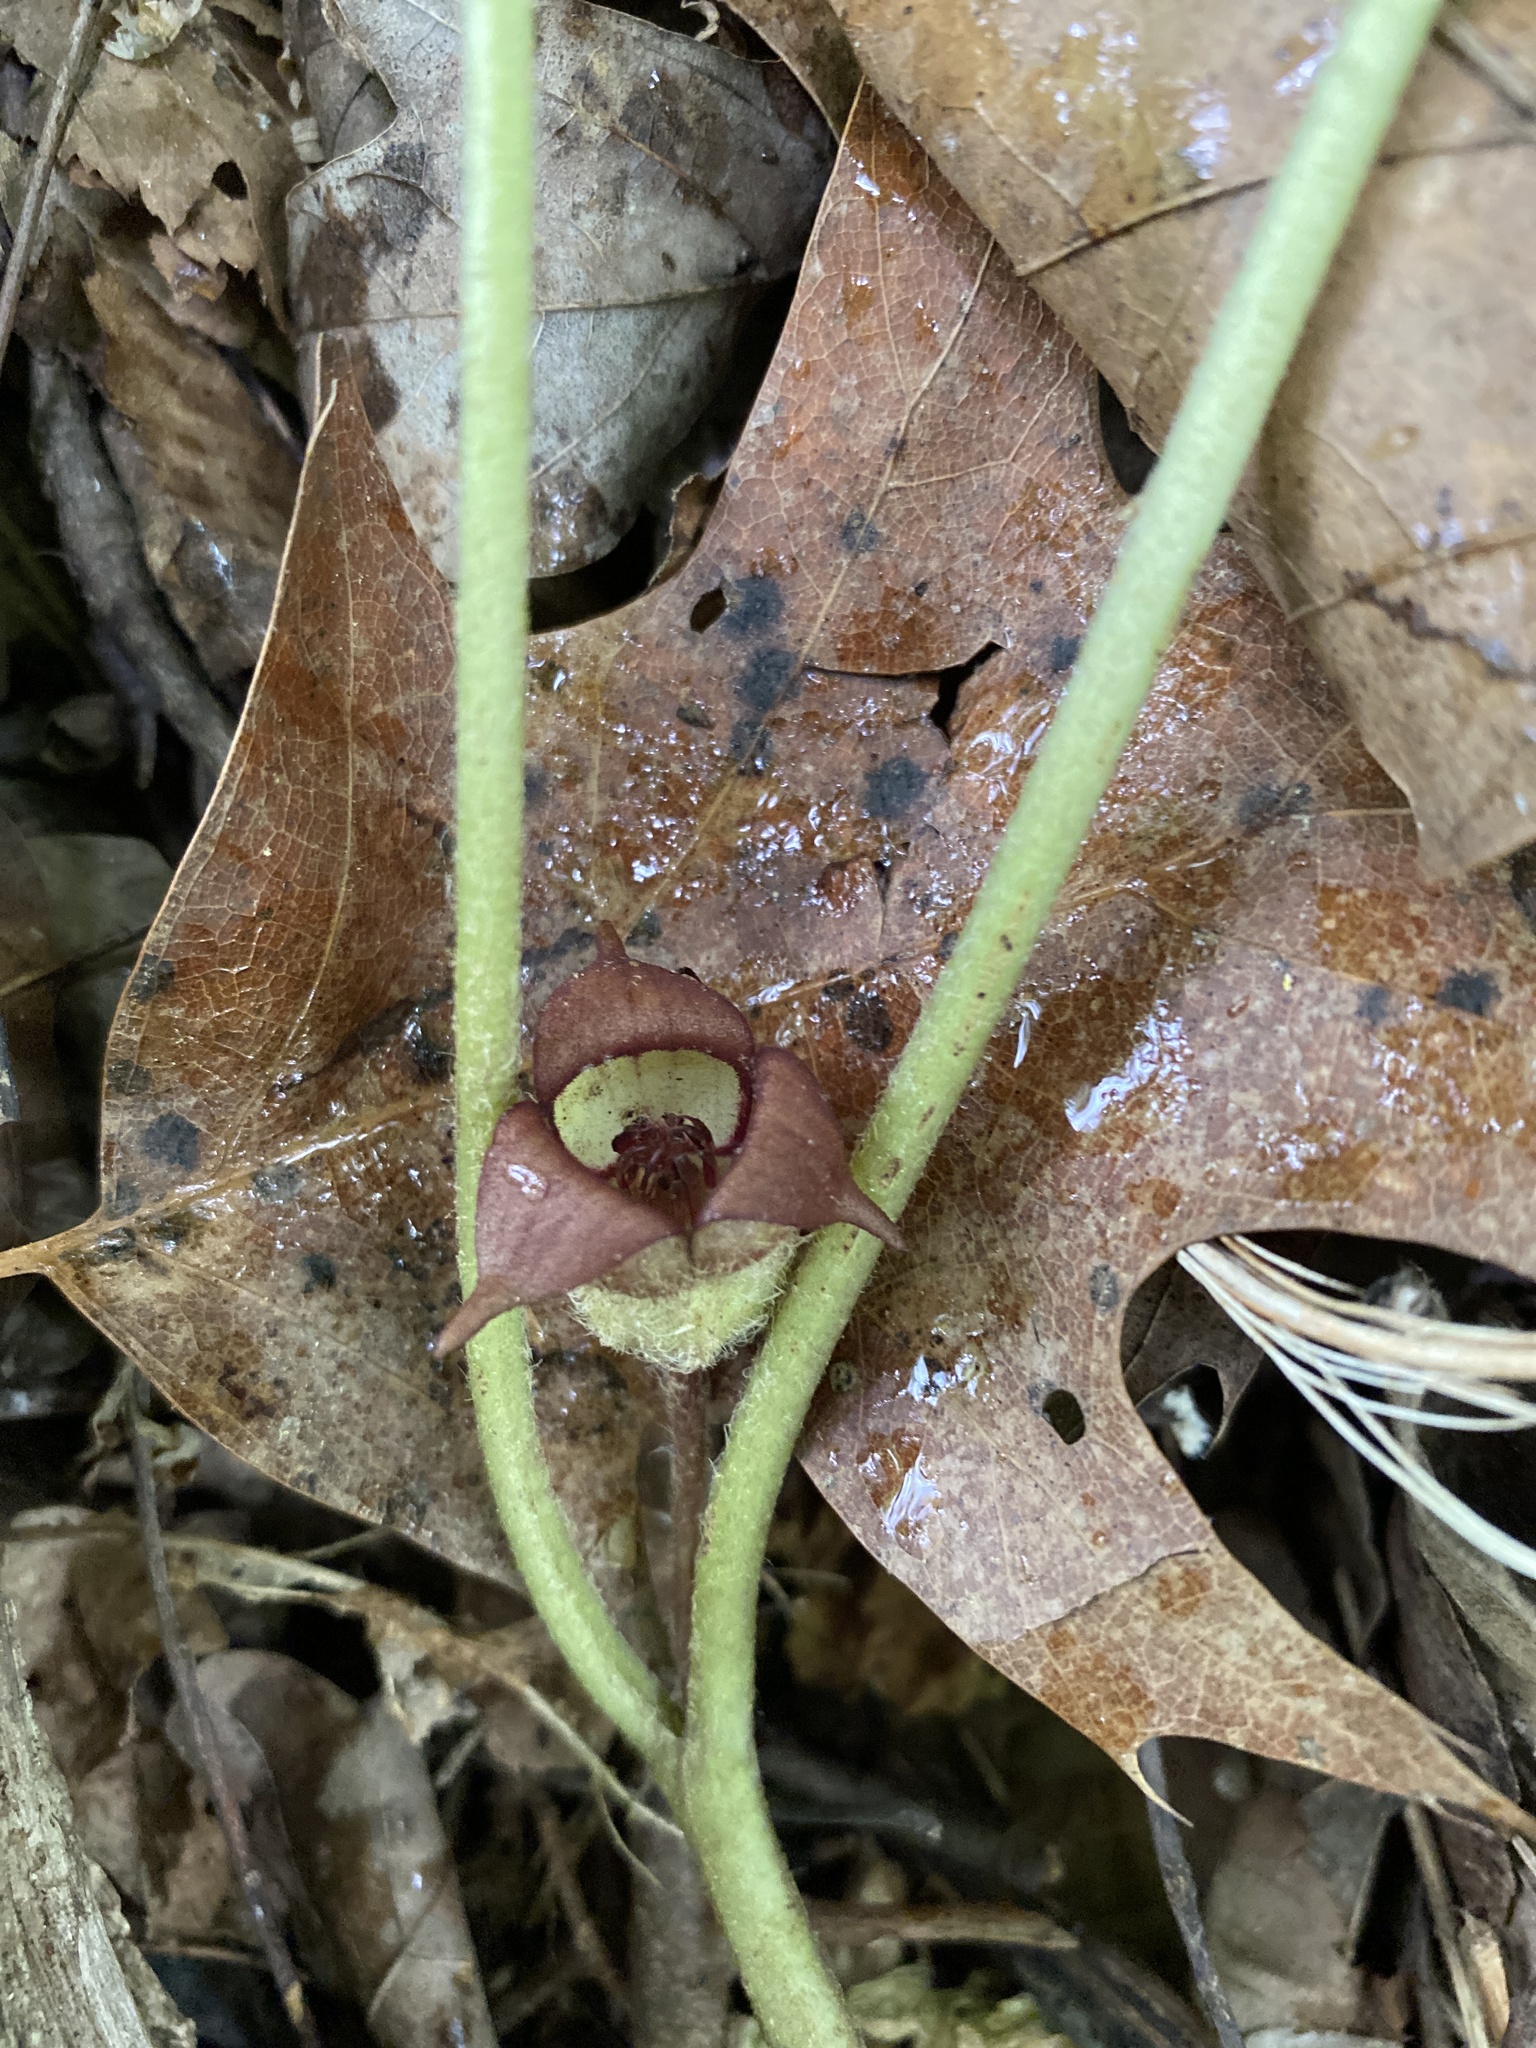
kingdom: Plantae
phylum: Tracheophyta
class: Magnoliopsida
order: Piperales
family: Aristolochiaceae
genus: Asarum
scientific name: Asarum canadense
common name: Wild ginger
